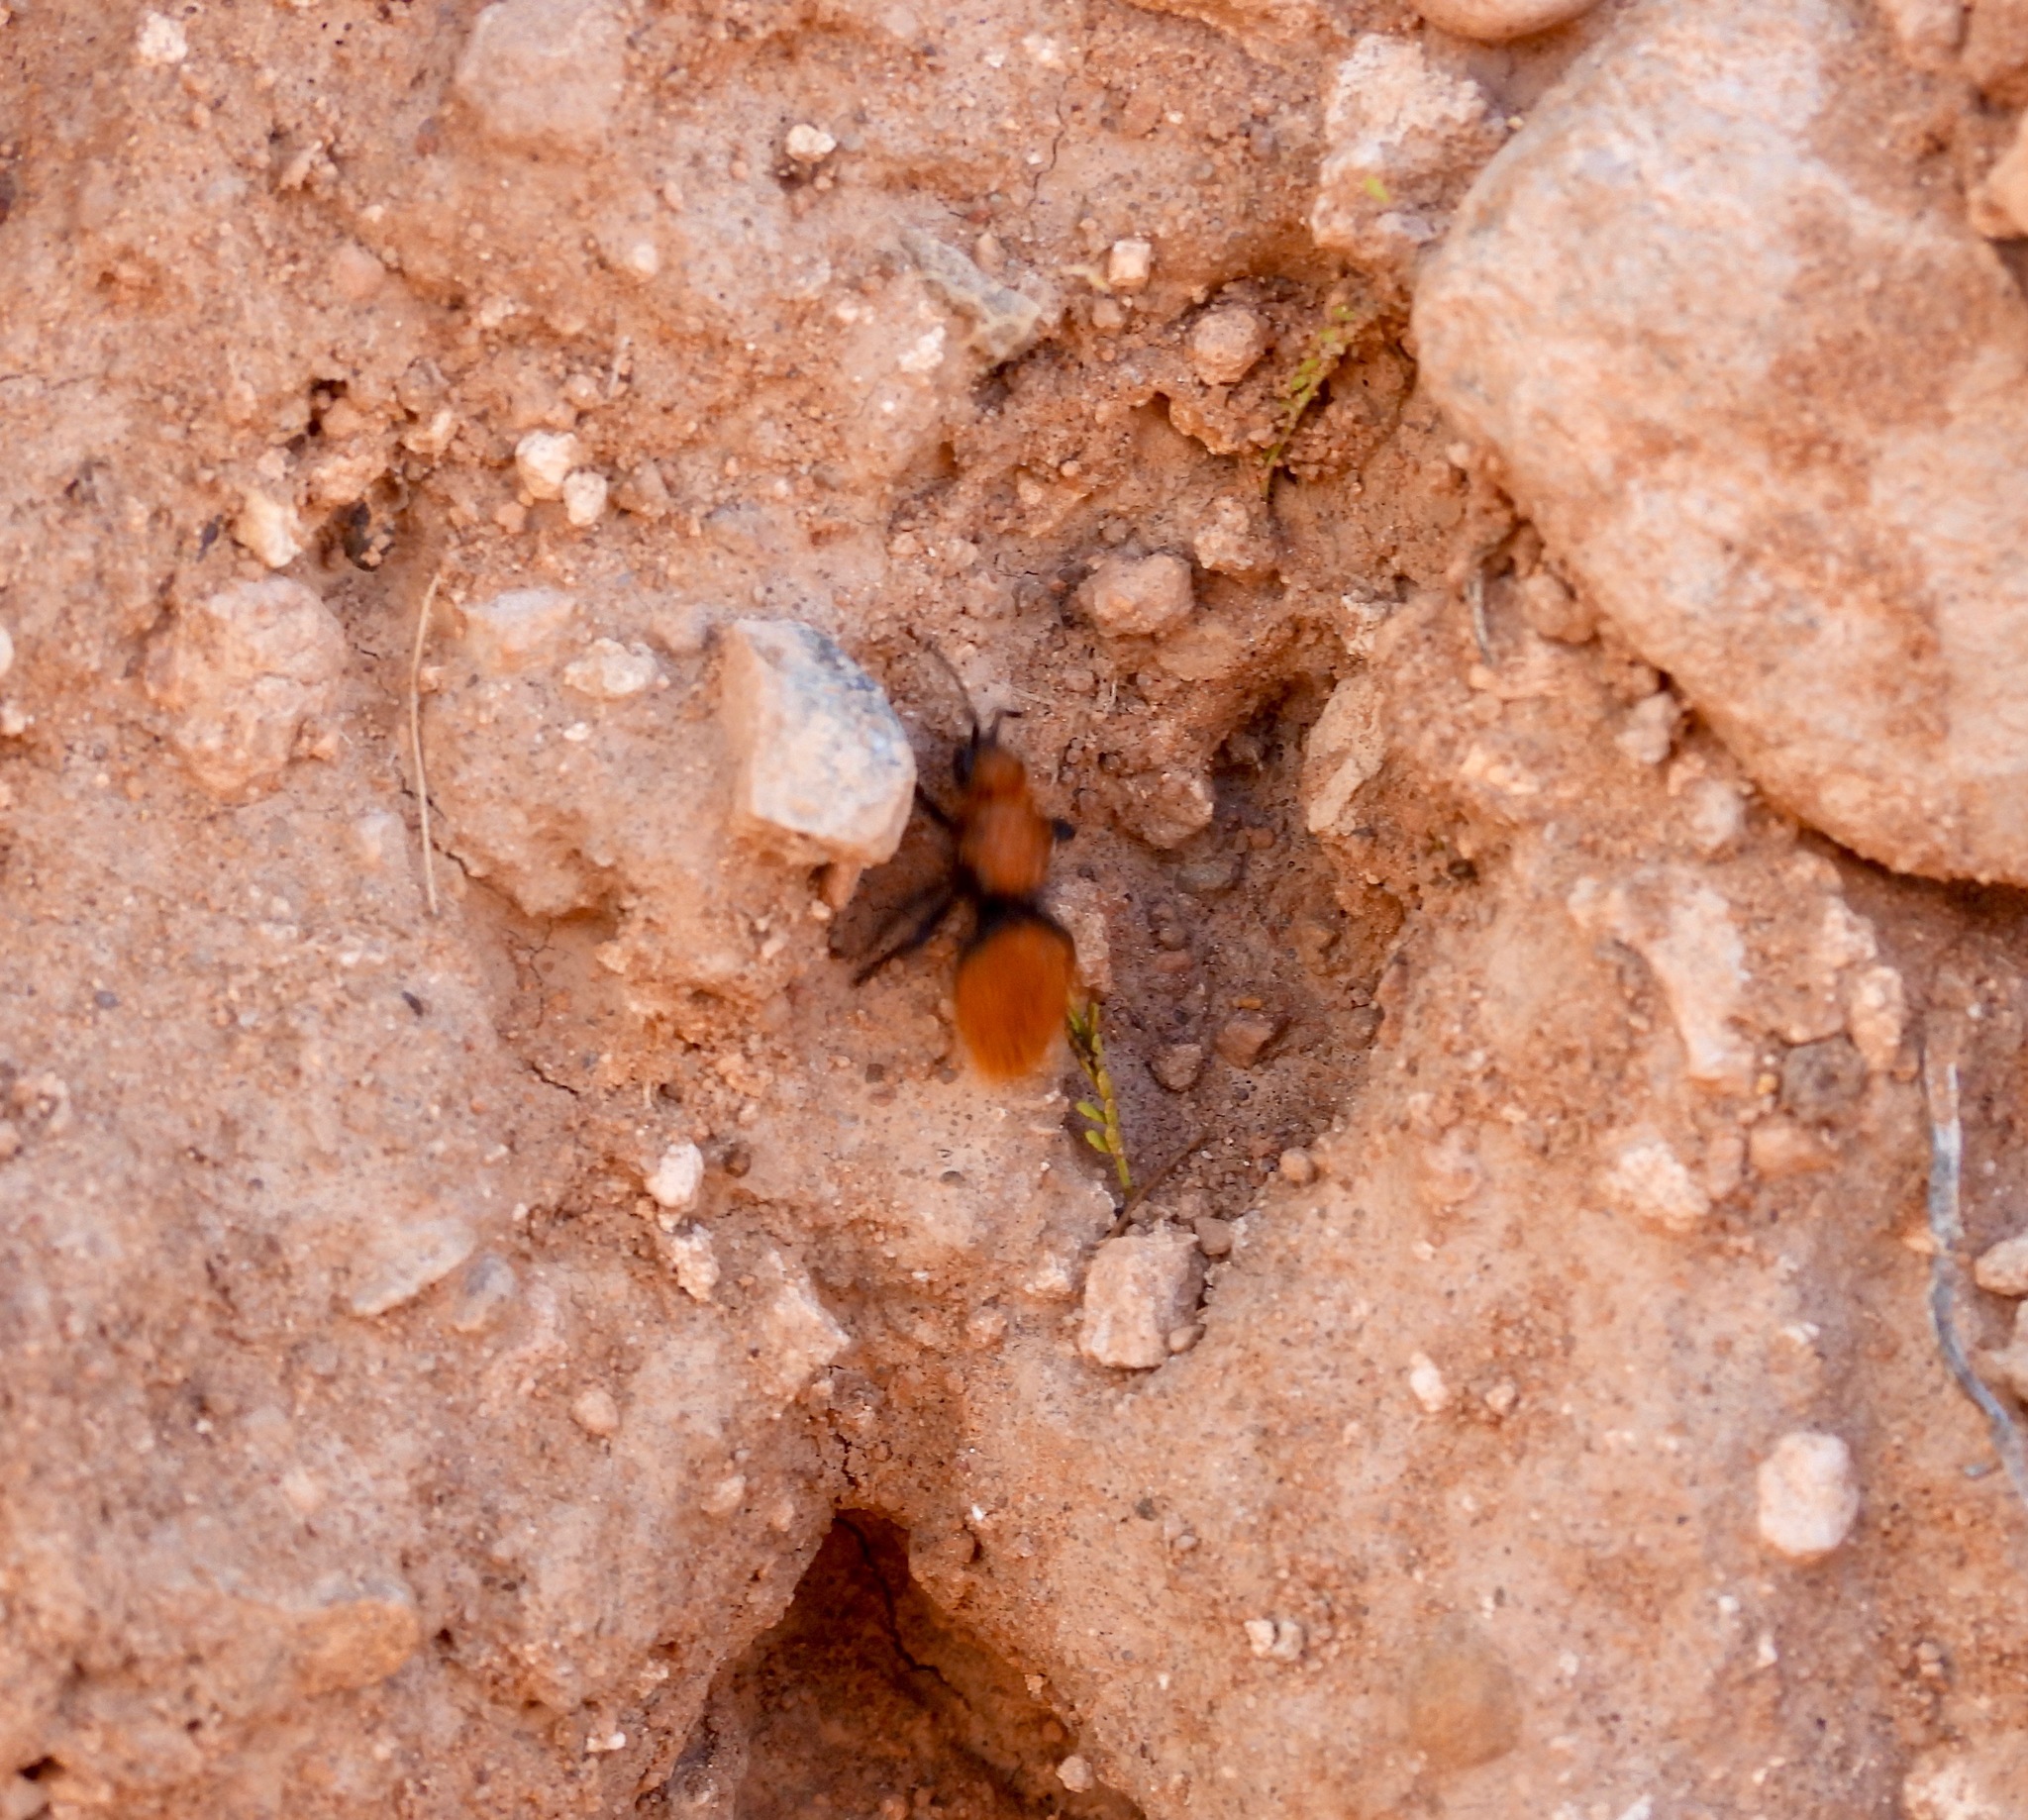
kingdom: Animalia
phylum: Arthropoda
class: Insecta
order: Hymenoptera
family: Mutillidae
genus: Dasymutilla
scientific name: Dasymutilla vestita
